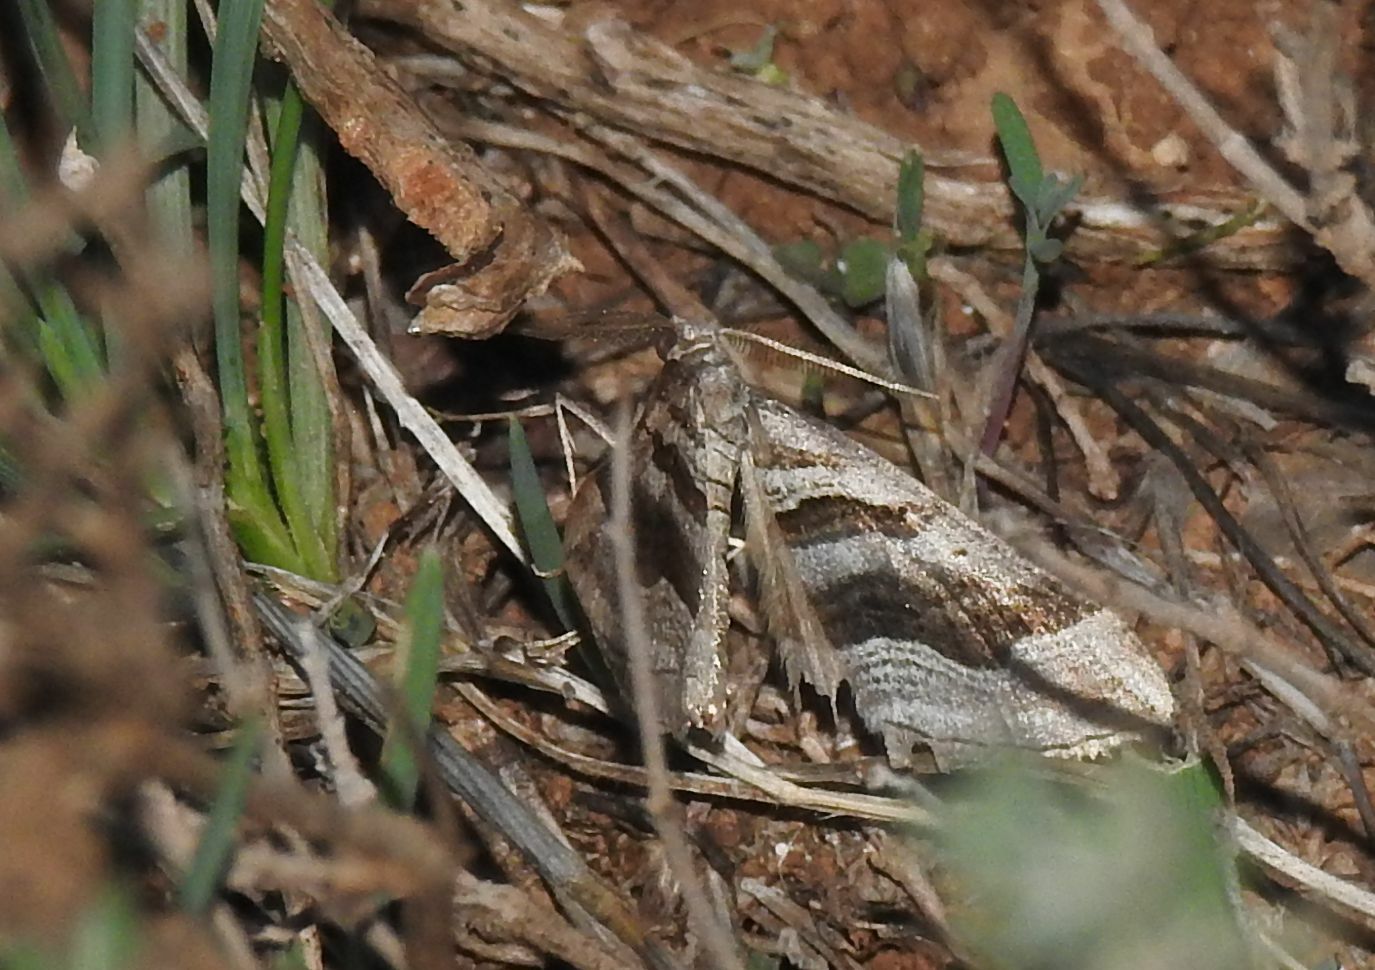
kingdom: Animalia
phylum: Arthropoda
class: Insecta
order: Lepidoptera
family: Geometridae
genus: Scotopteryx
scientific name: Scotopteryx peribolata
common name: Spanish carpet
